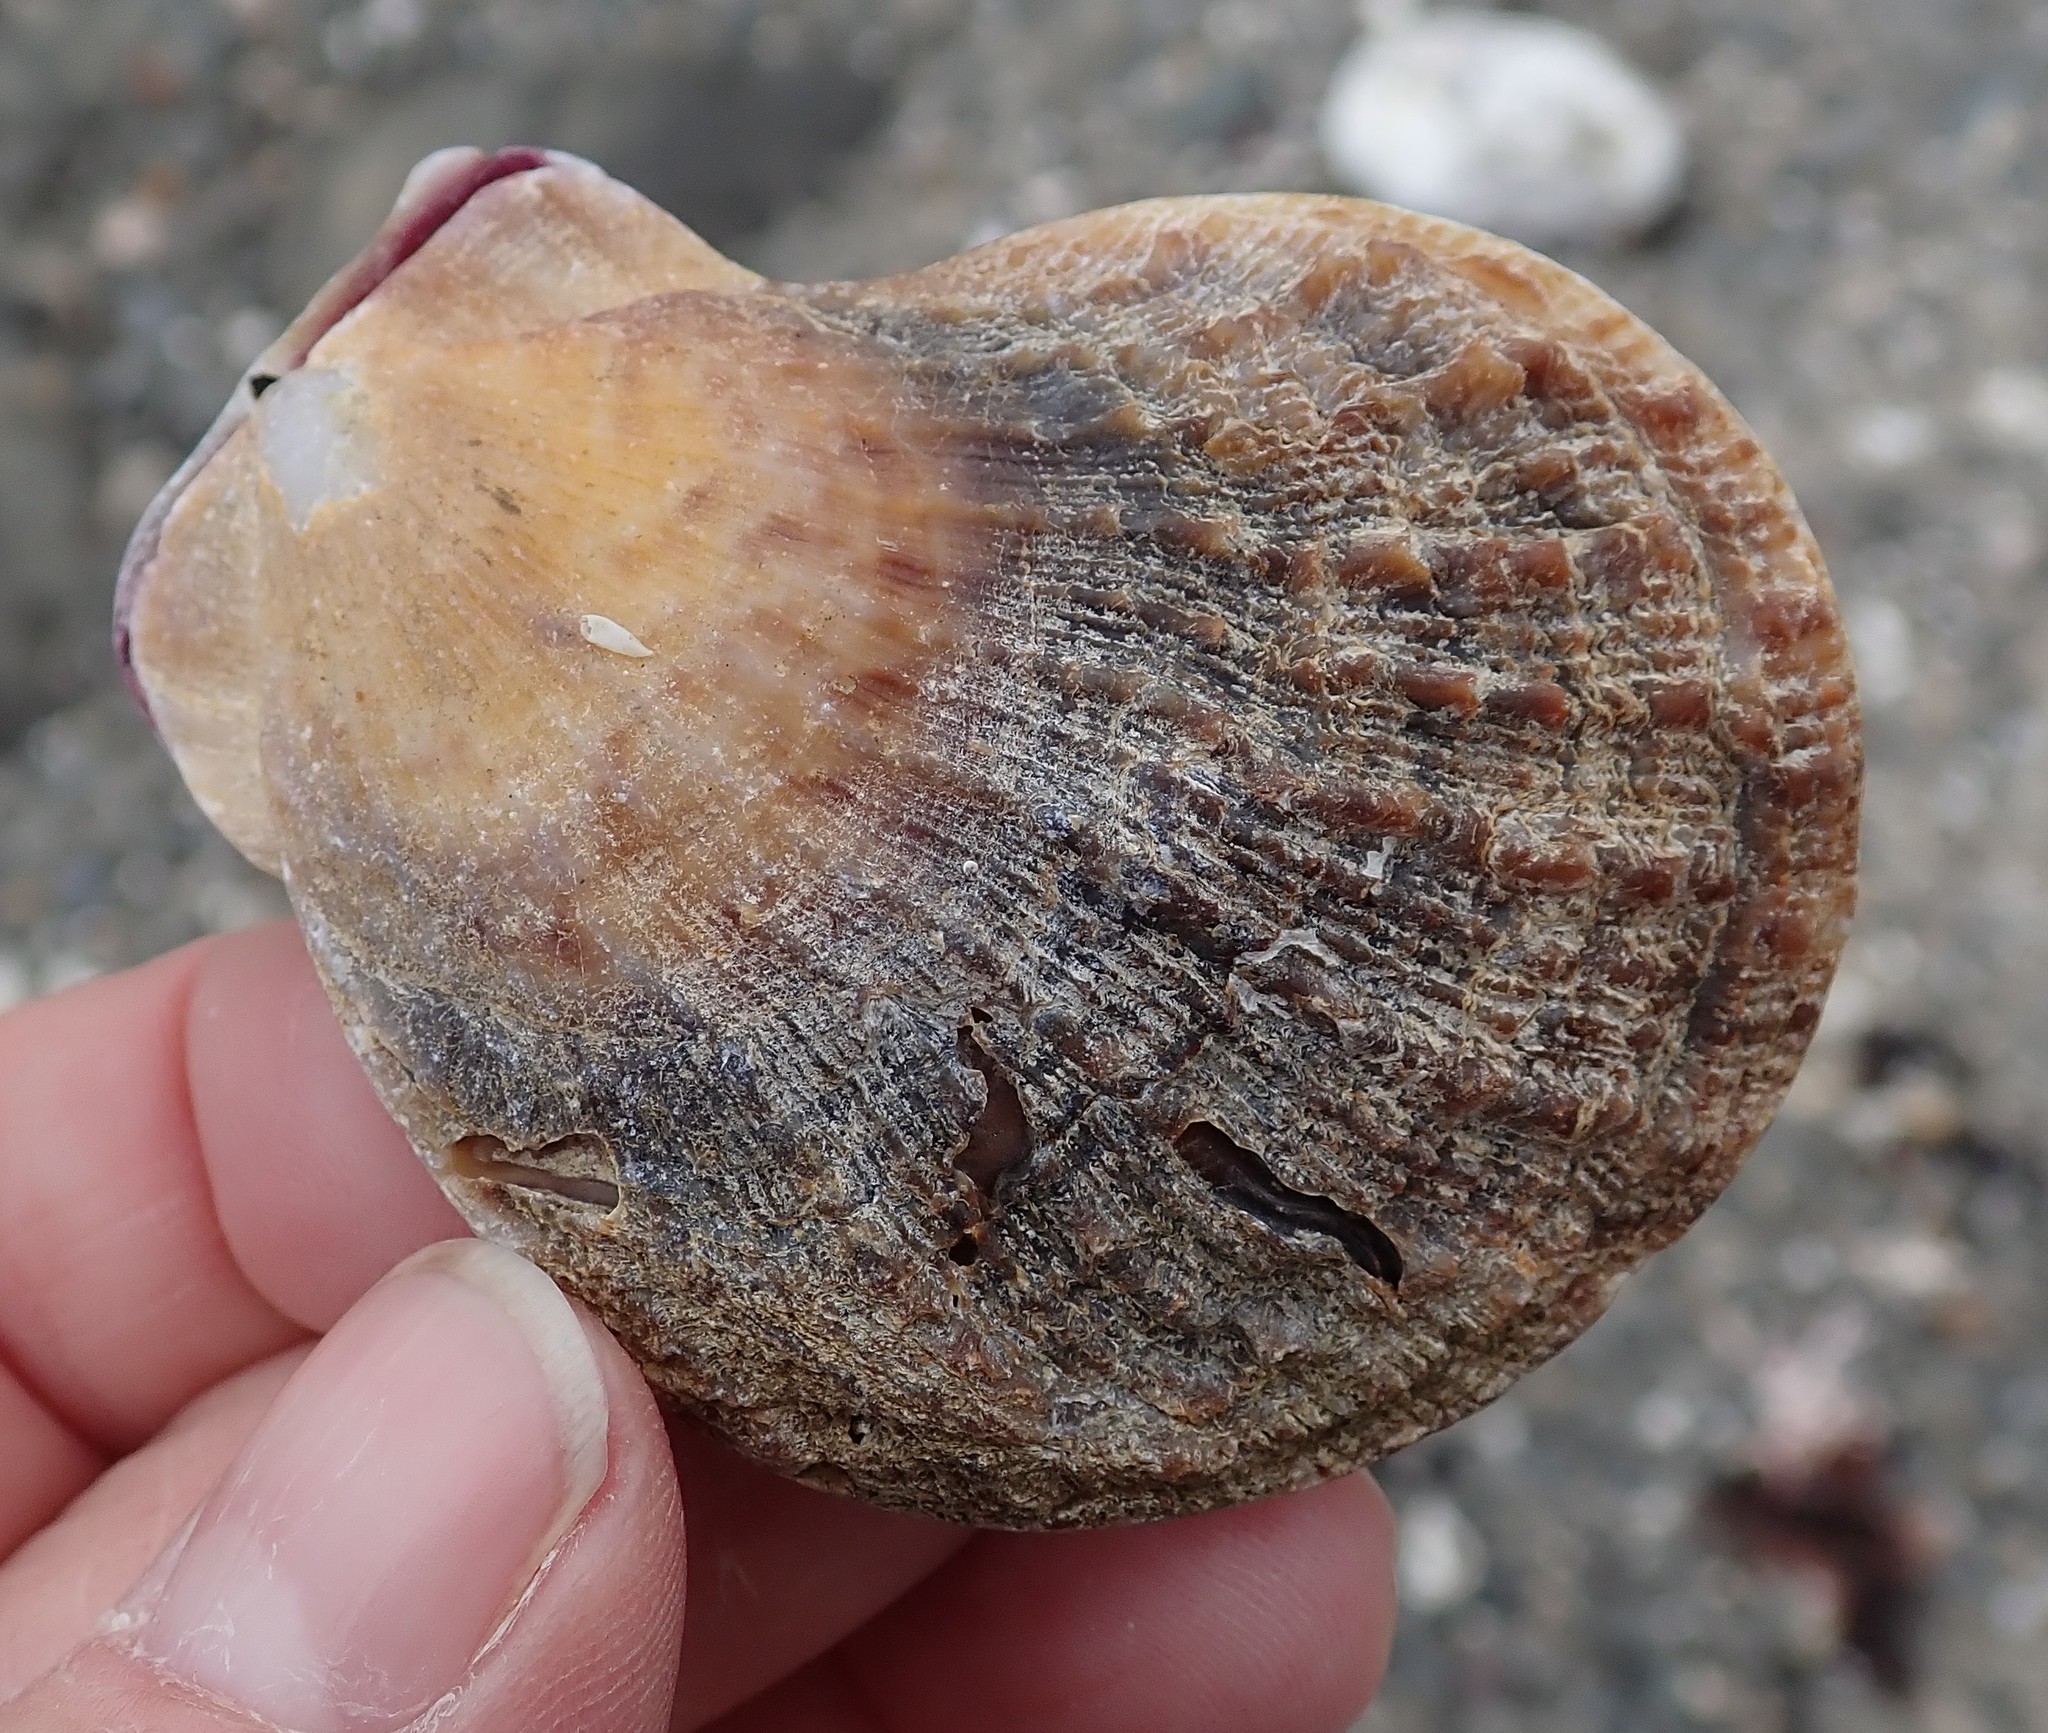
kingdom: Animalia
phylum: Mollusca
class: Bivalvia
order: Pectinida
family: Pectinidae
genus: Crassadoma
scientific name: Crassadoma gigantea
